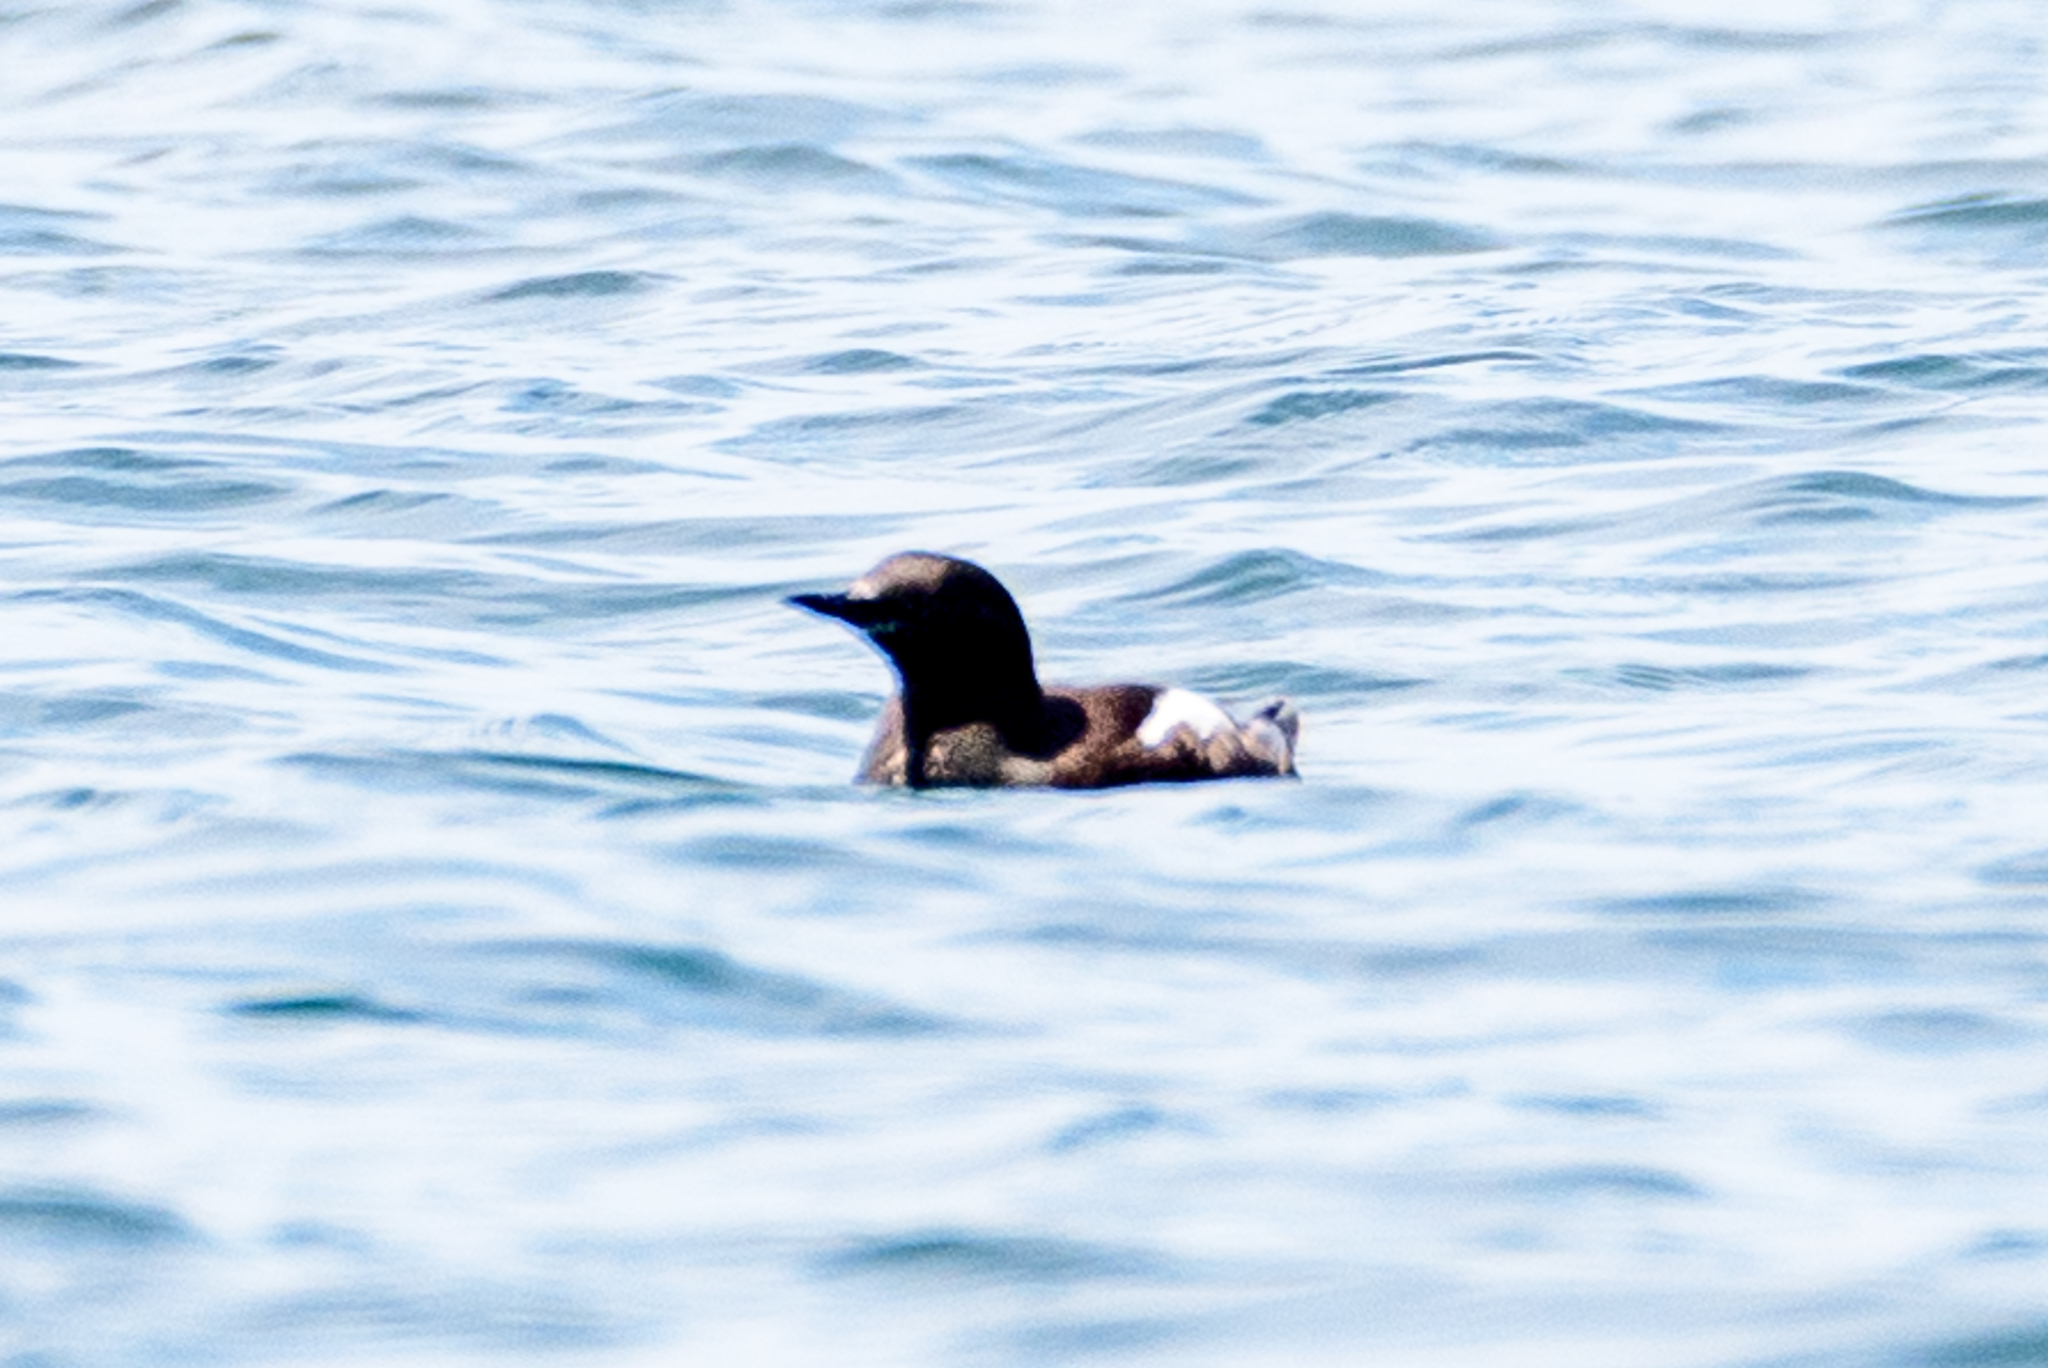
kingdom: Animalia
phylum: Chordata
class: Aves
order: Charadriiformes
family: Alcidae
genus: Cepphus
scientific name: Cepphus grylle
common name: Black guillemot
